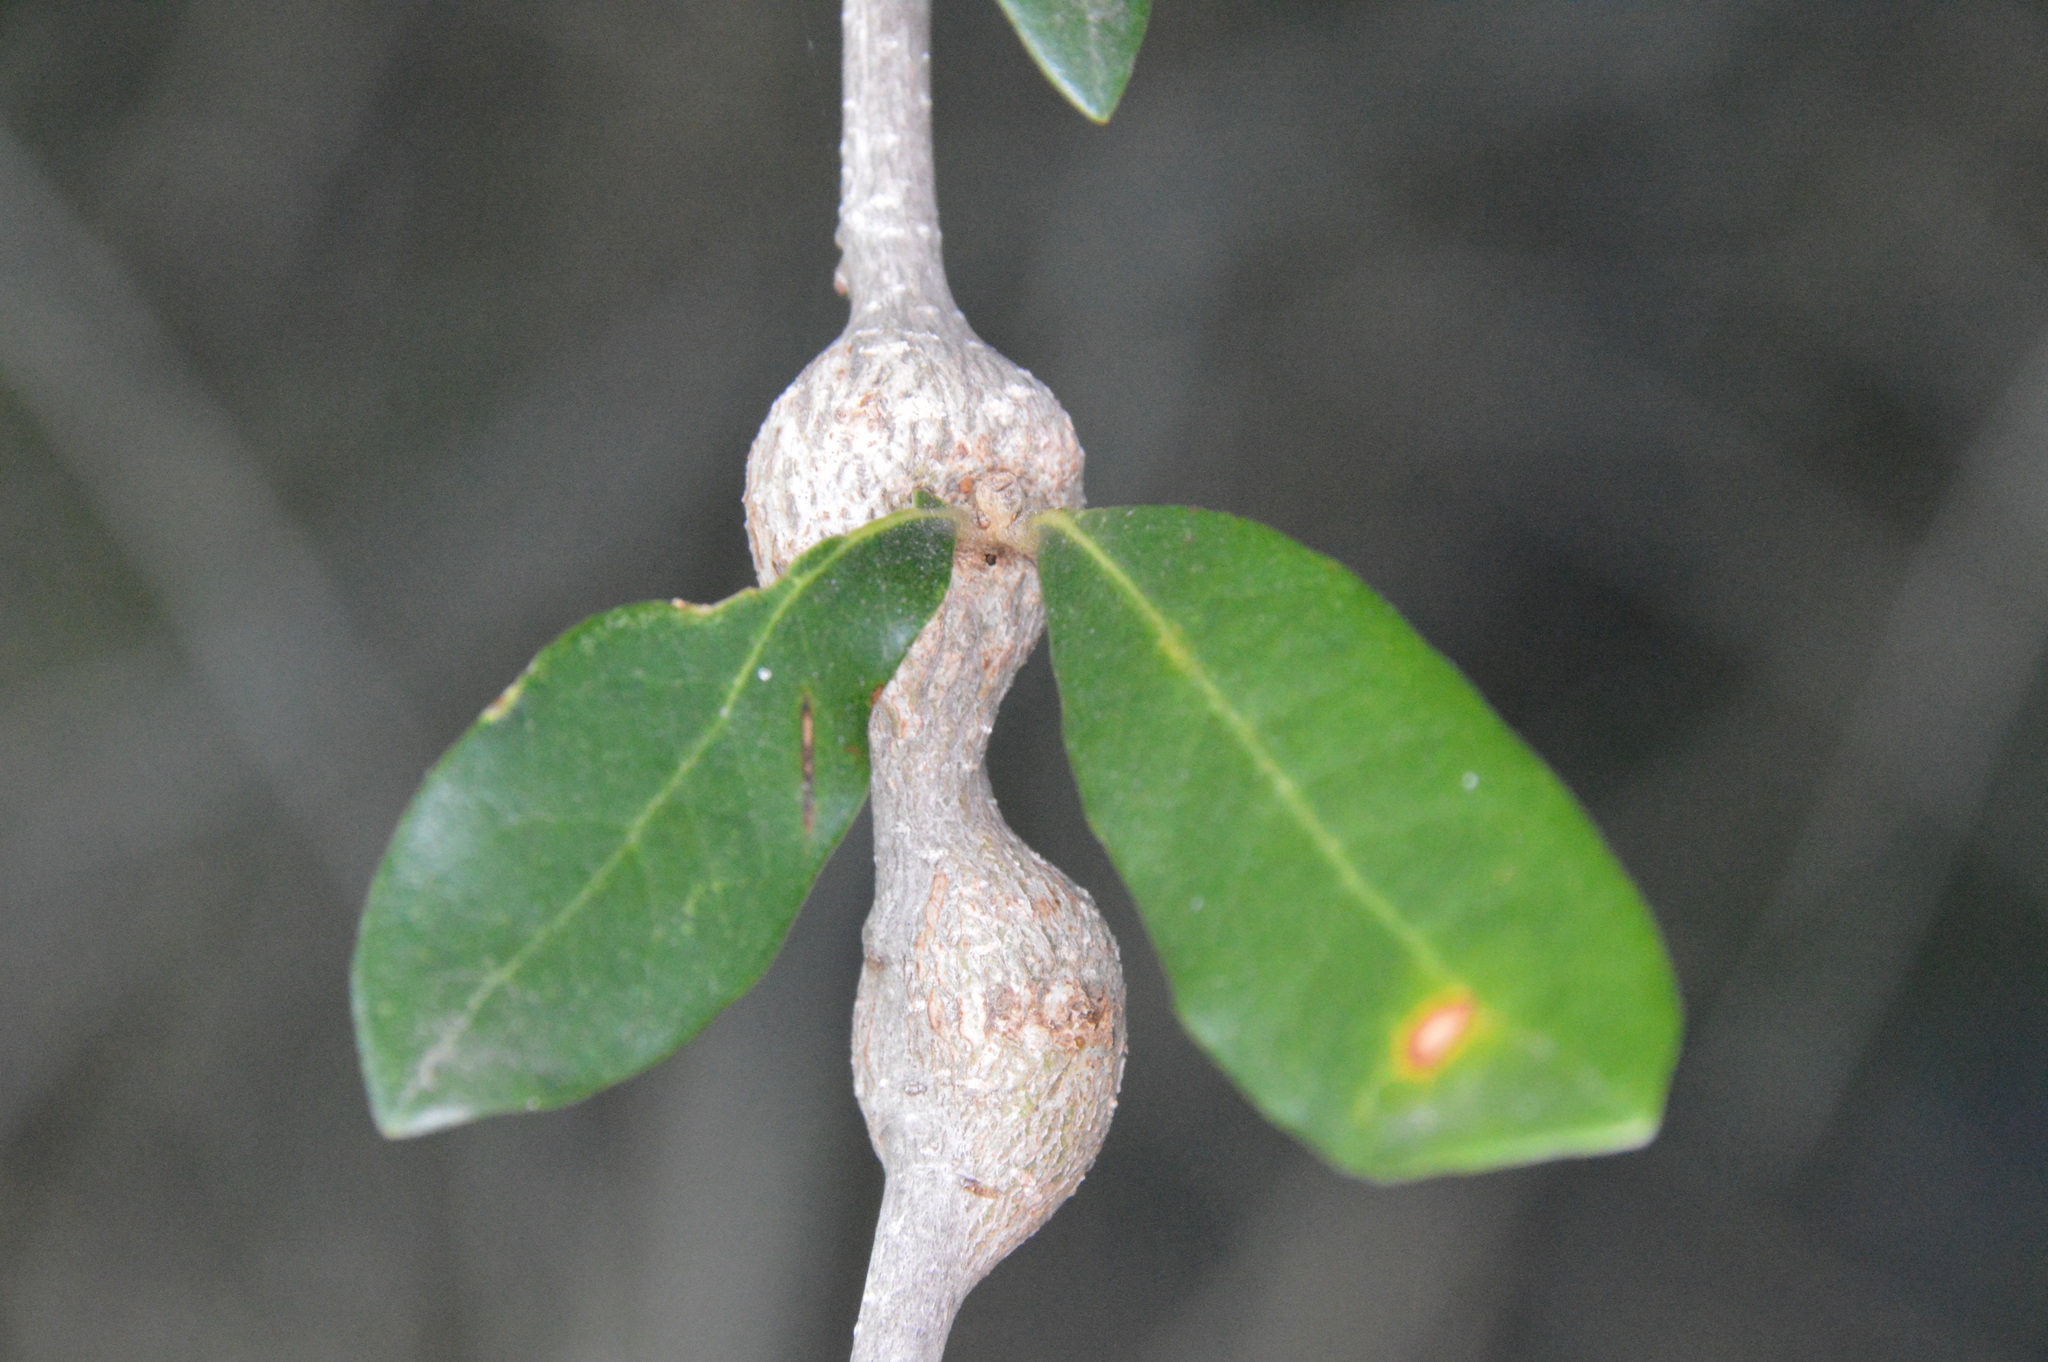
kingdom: Animalia
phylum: Arthropoda
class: Insecta
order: Hymenoptera
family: Cynipidae
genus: Callirhytis
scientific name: Callirhytis
